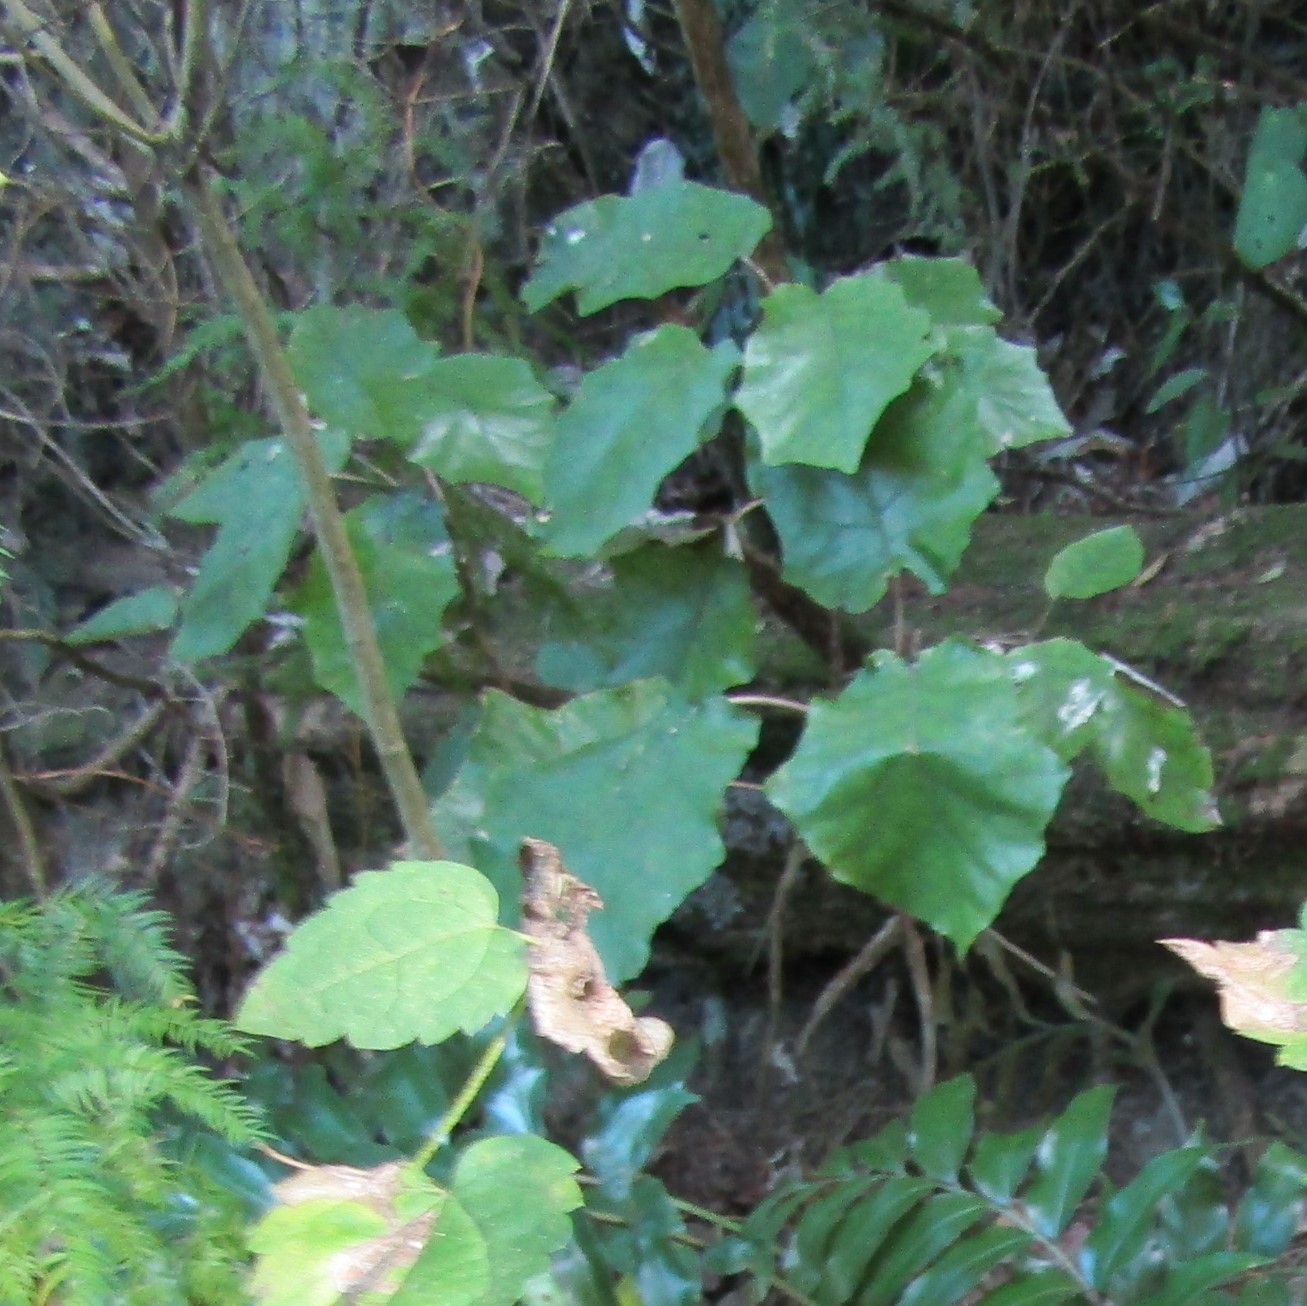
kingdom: Plantae
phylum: Tracheophyta
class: Magnoliopsida
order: Asterales
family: Asteraceae
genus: Brachyglottis
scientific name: Brachyglottis repanda
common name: Hedge ragwort
